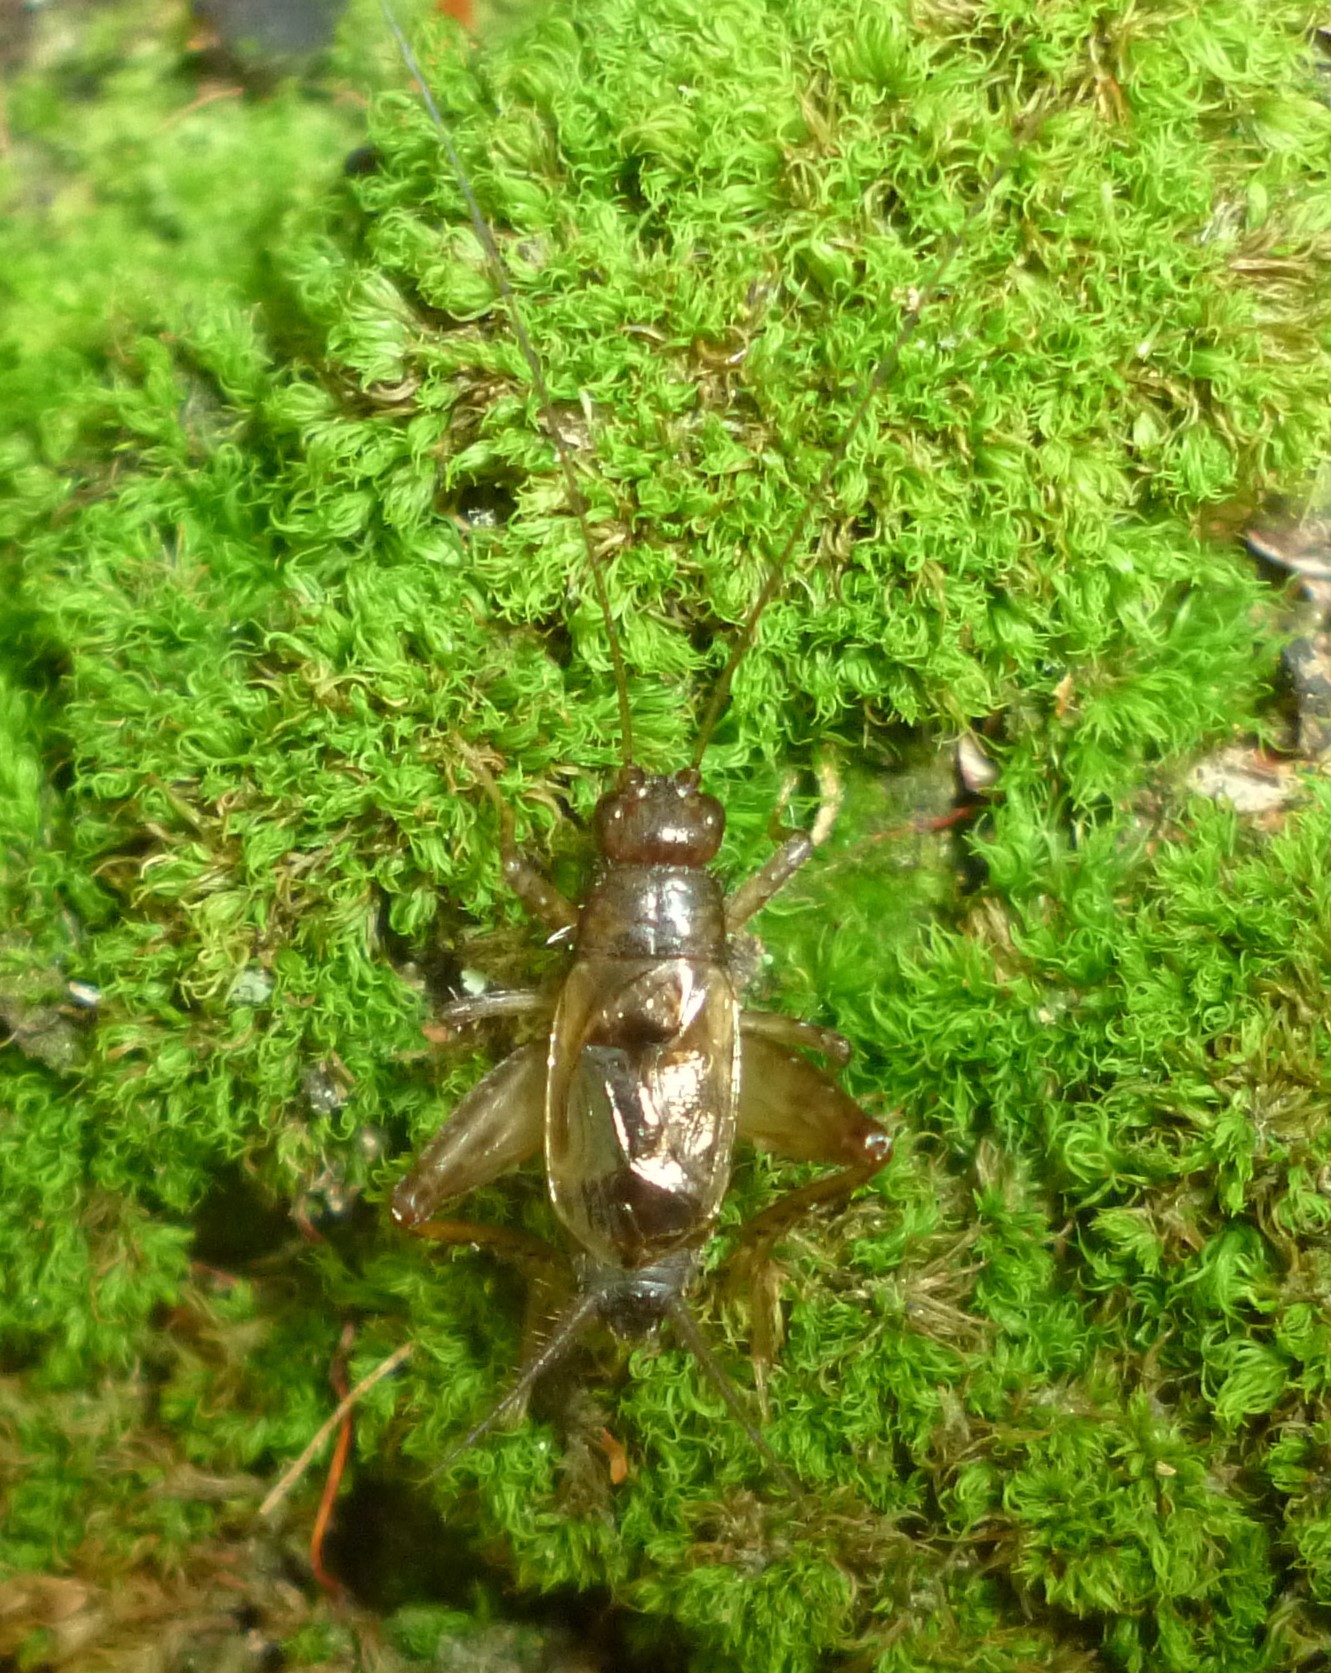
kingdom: Animalia
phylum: Arthropoda
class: Insecta
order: Orthoptera
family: Trigonidiidae
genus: Eunemobius
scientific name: Eunemobius carolinus
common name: Carolina ground cricket
